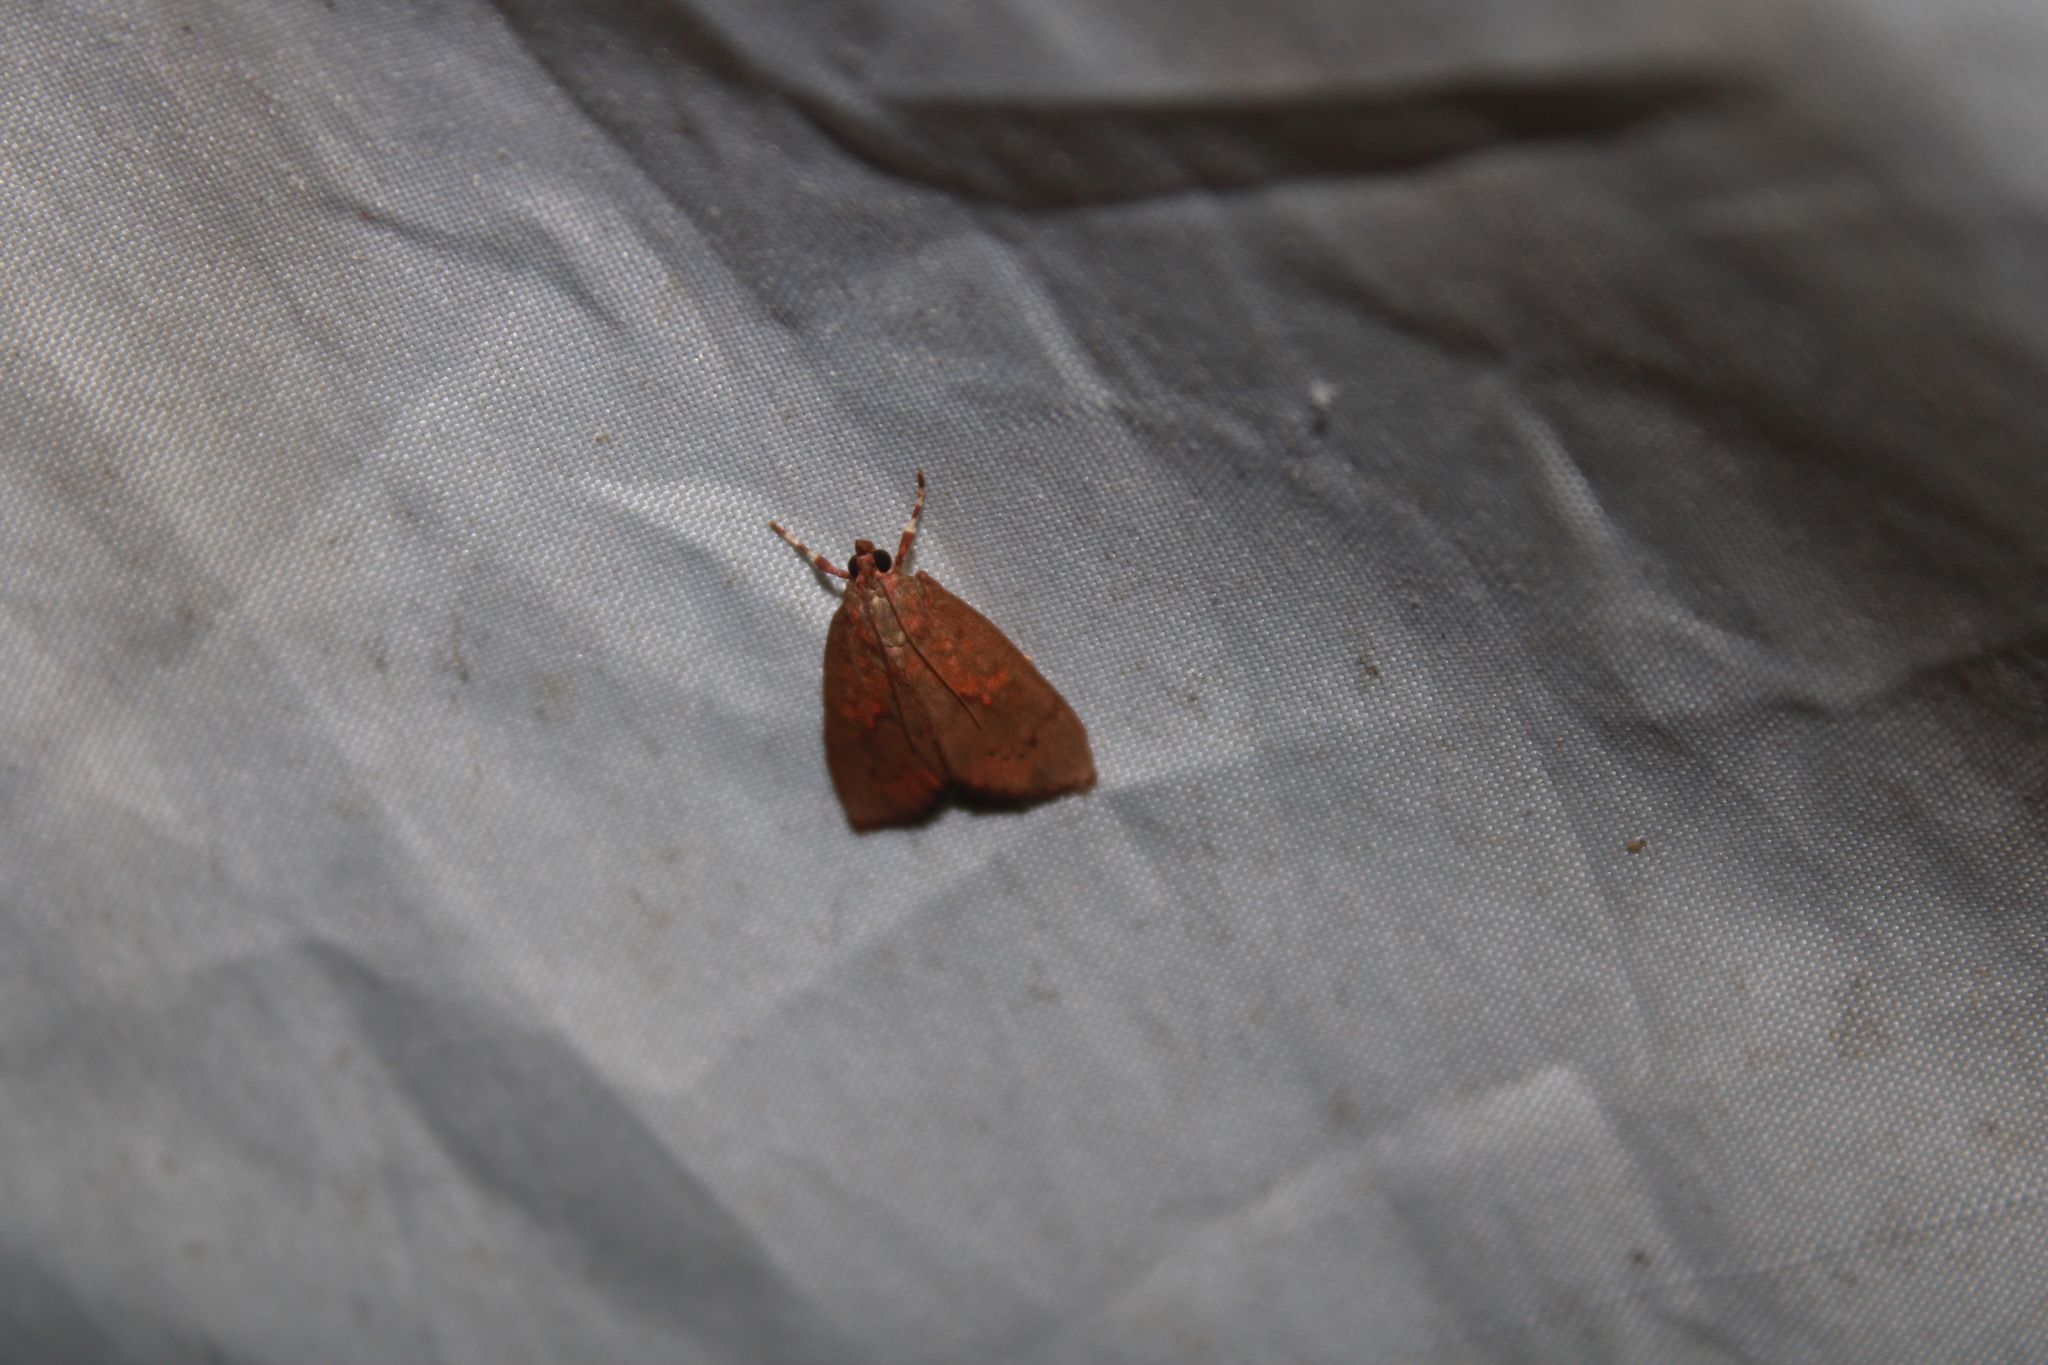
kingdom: Animalia
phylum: Arthropoda
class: Insecta
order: Lepidoptera
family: Crambidae
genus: Mimophobetron
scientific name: Mimophobetron pyropsalis
